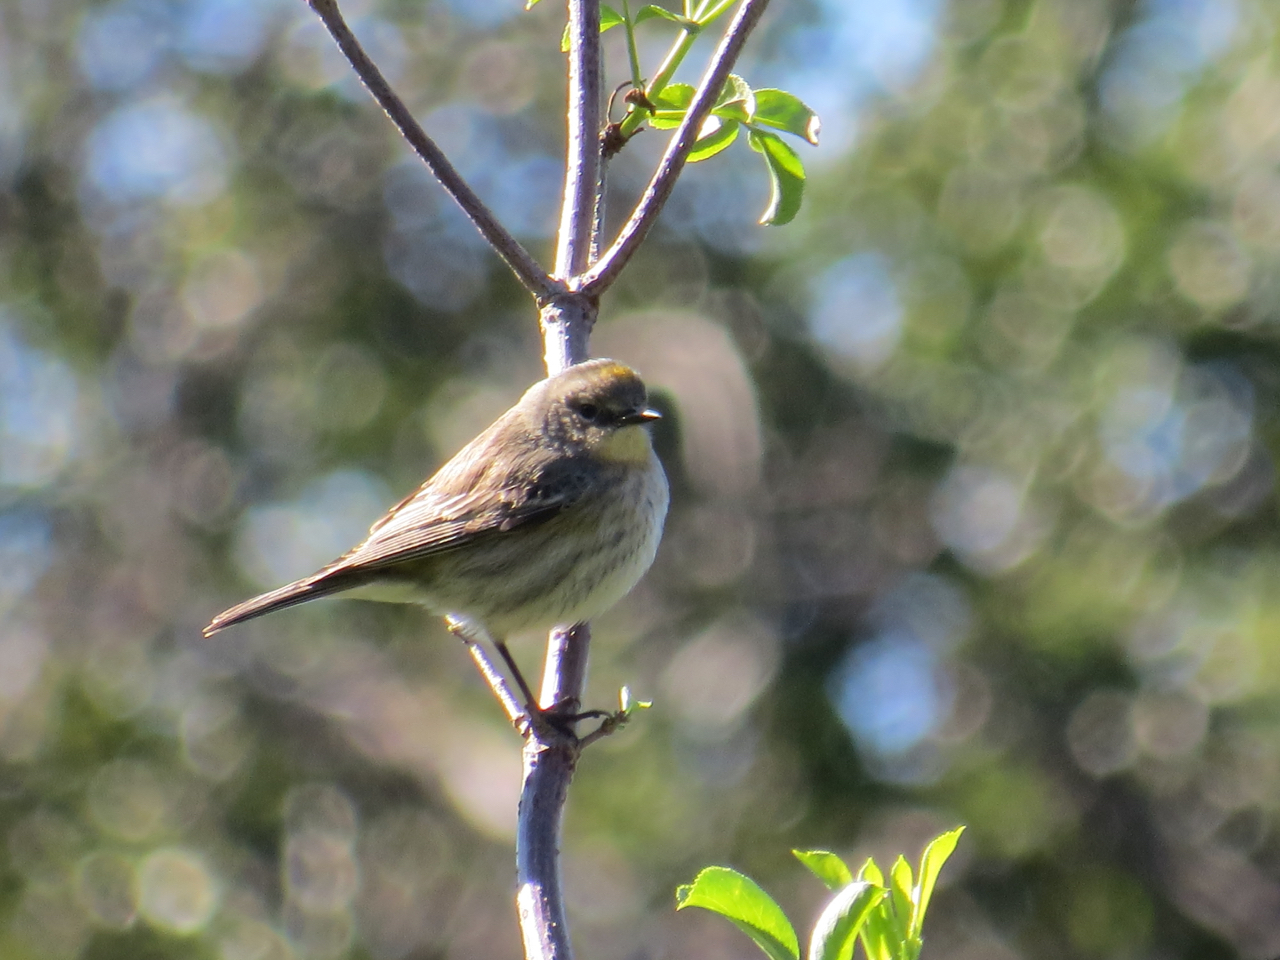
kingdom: Animalia
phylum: Chordata
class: Aves
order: Passeriformes
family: Parulidae
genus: Setophaga
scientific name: Setophaga coronata
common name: Myrtle warbler
